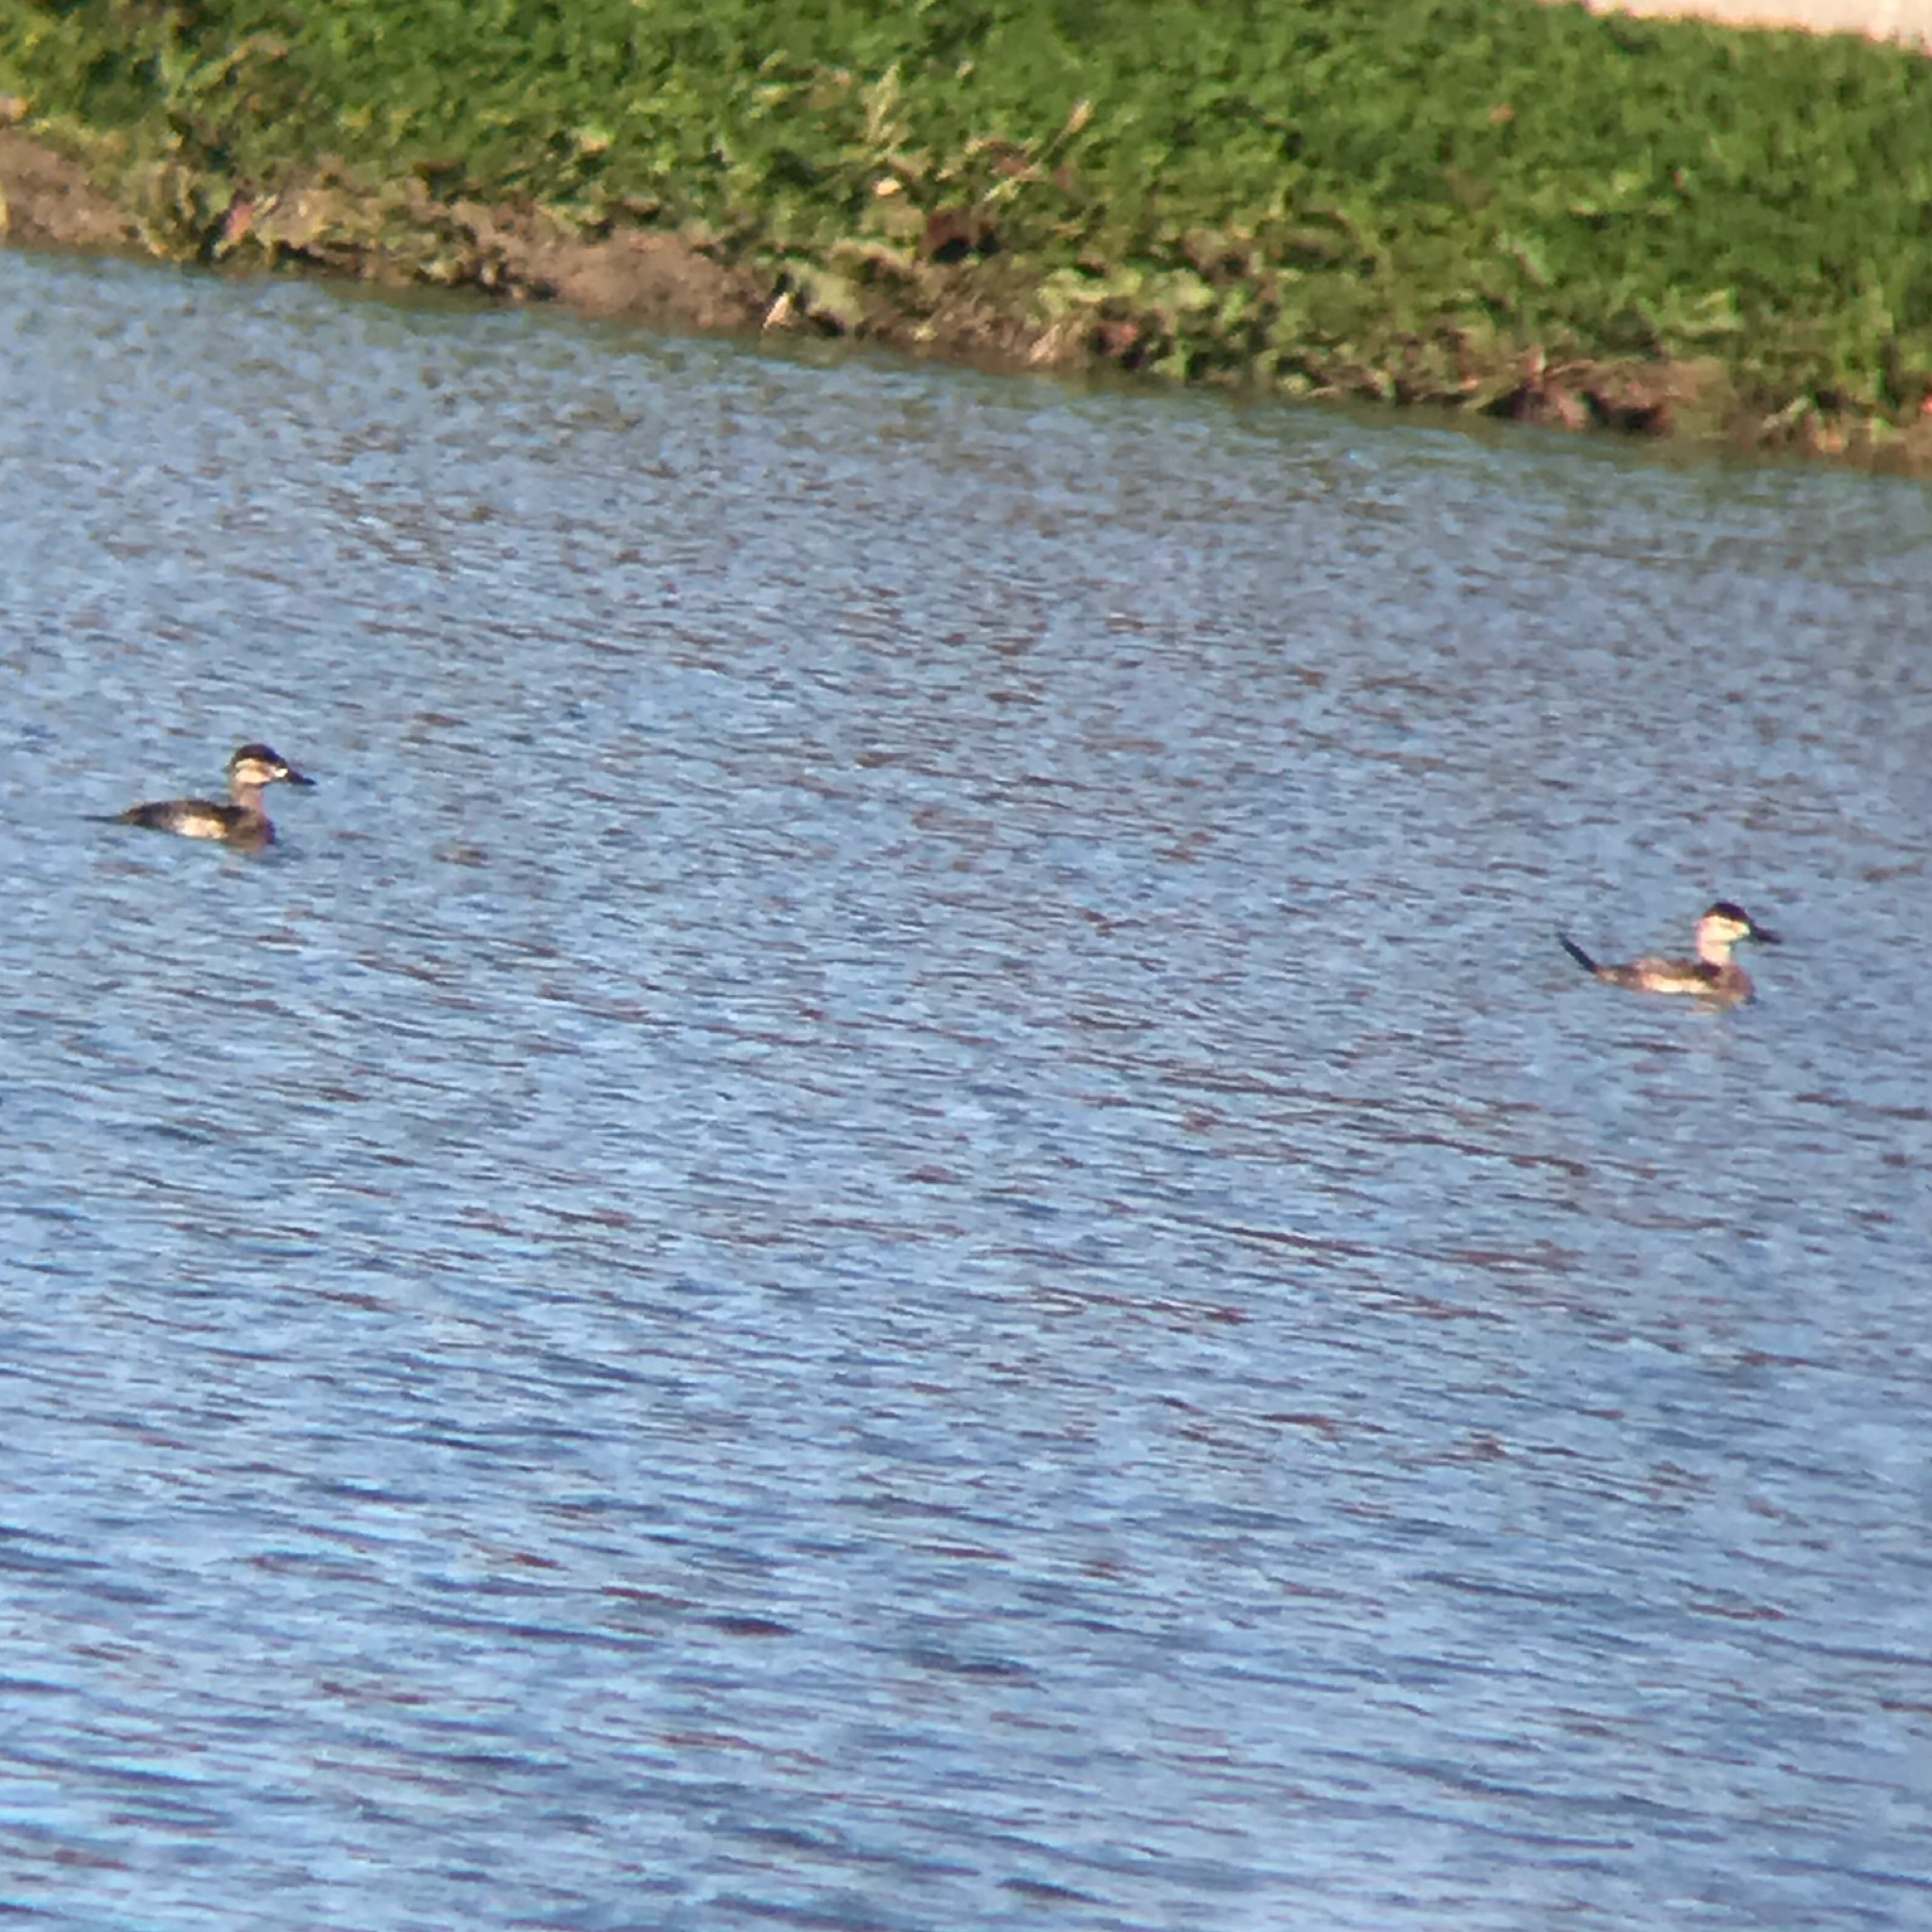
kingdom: Animalia
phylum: Chordata
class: Aves
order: Anseriformes
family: Anatidae
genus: Oxyura
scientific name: Oxyura jamaicensis
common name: Ruddy duck
